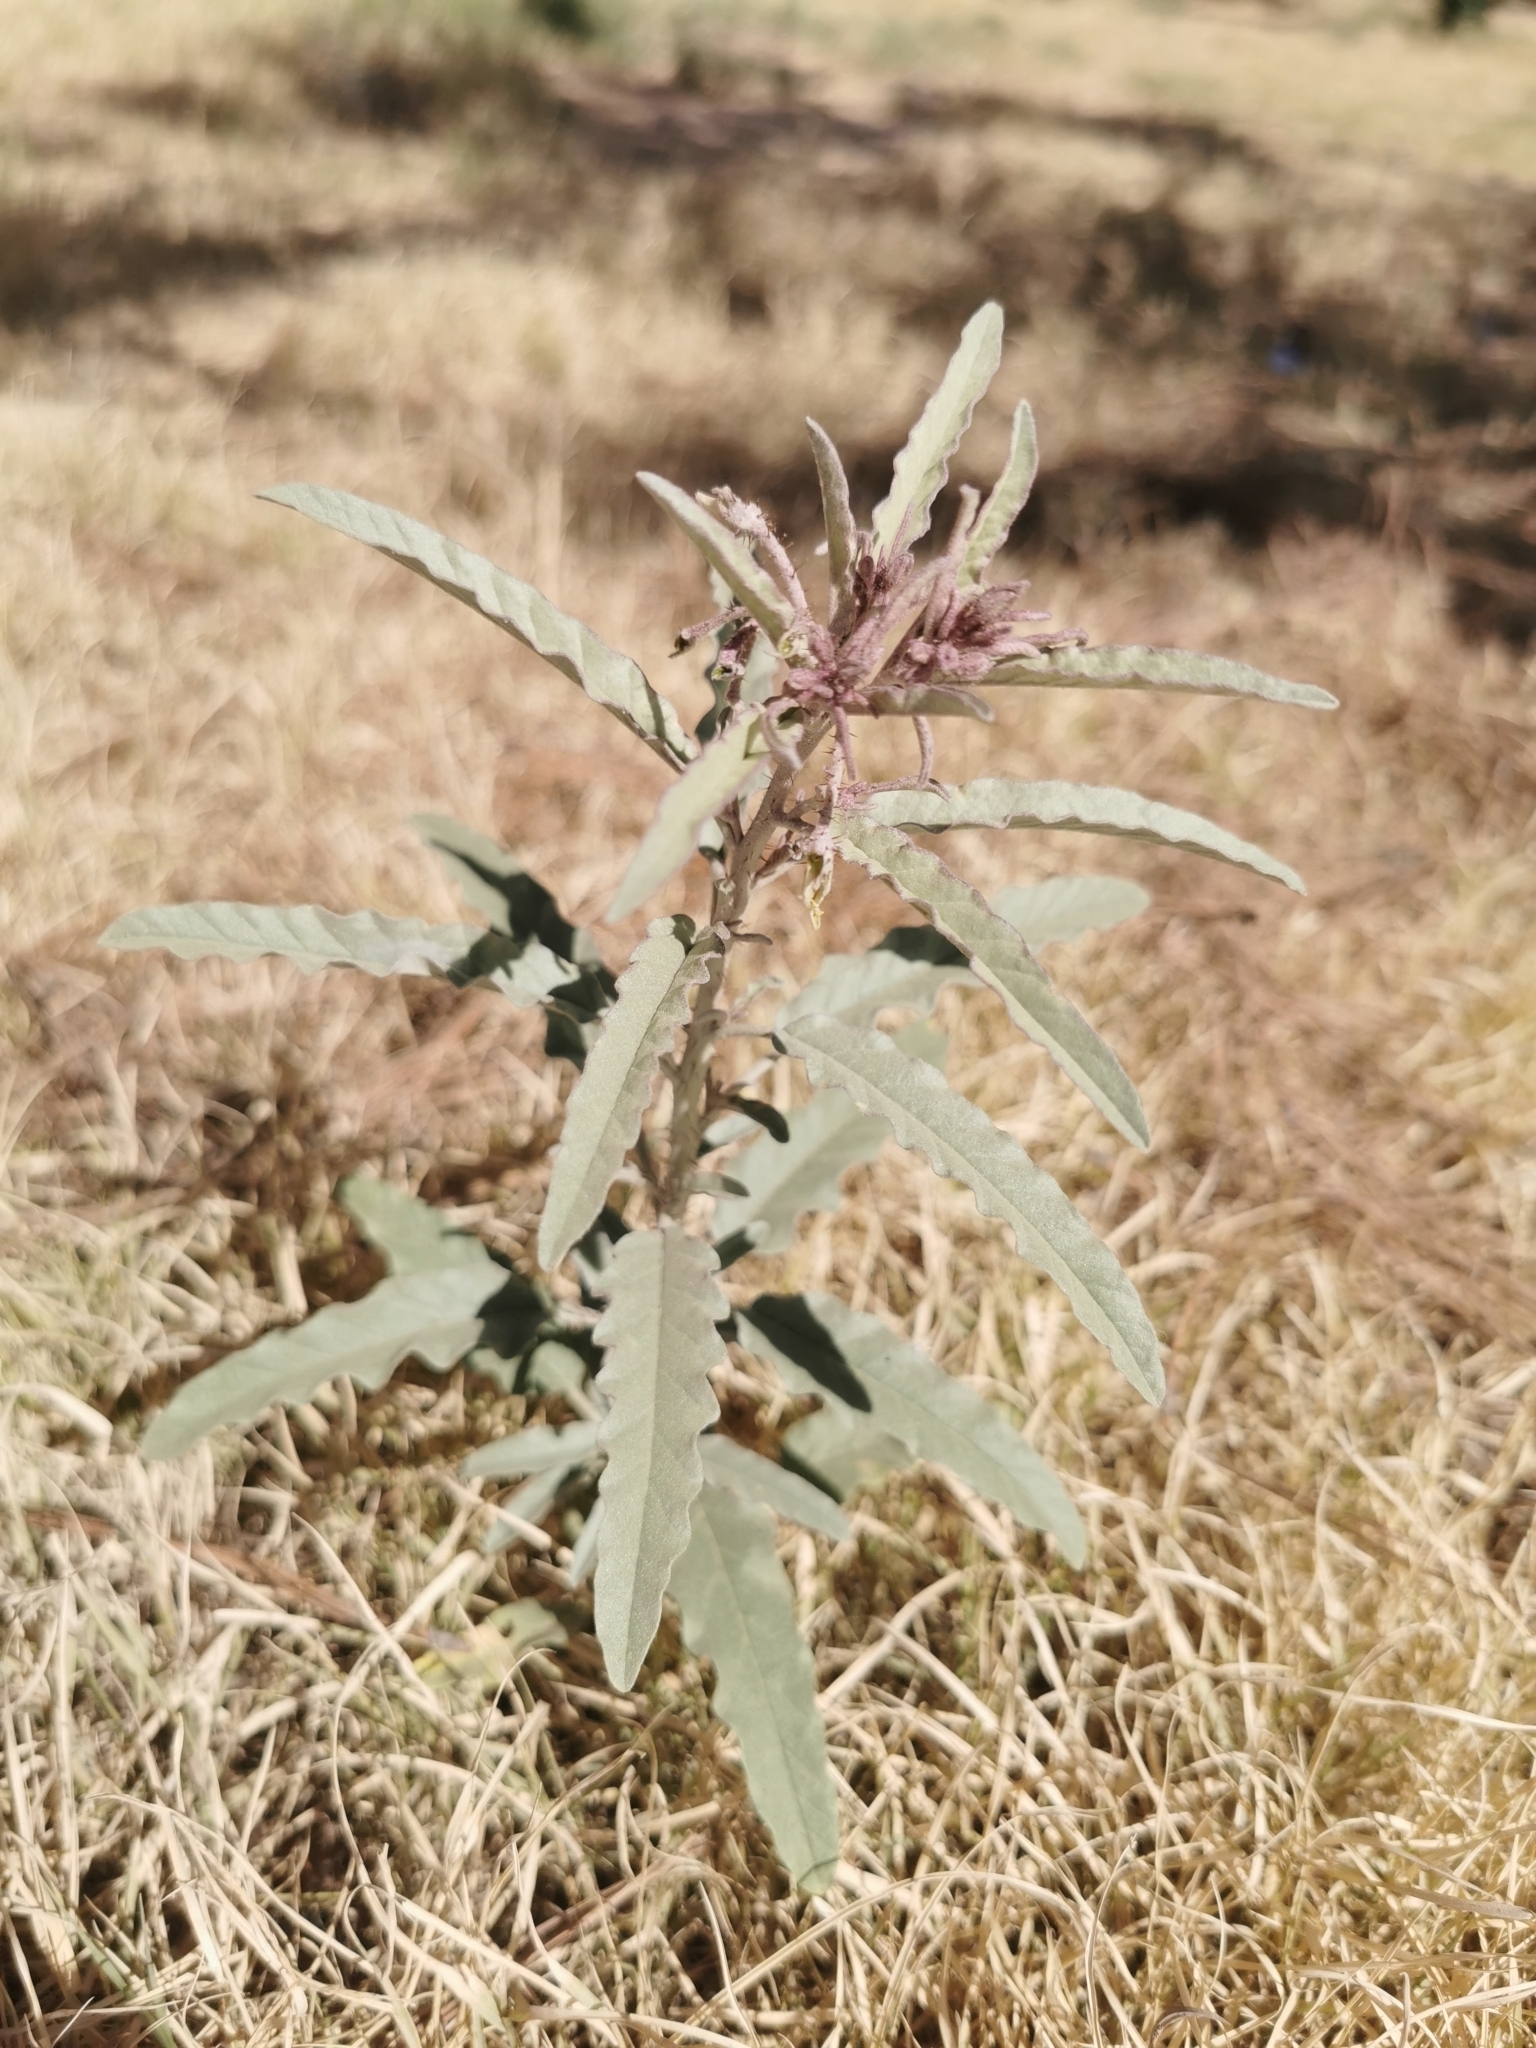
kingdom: Plantae
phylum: Tracheophyta
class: Magnoliopsida
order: Solanales
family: Solanaceae
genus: Solanum
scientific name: Solanum elaeagnifolium
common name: Silverleaf nightshade
